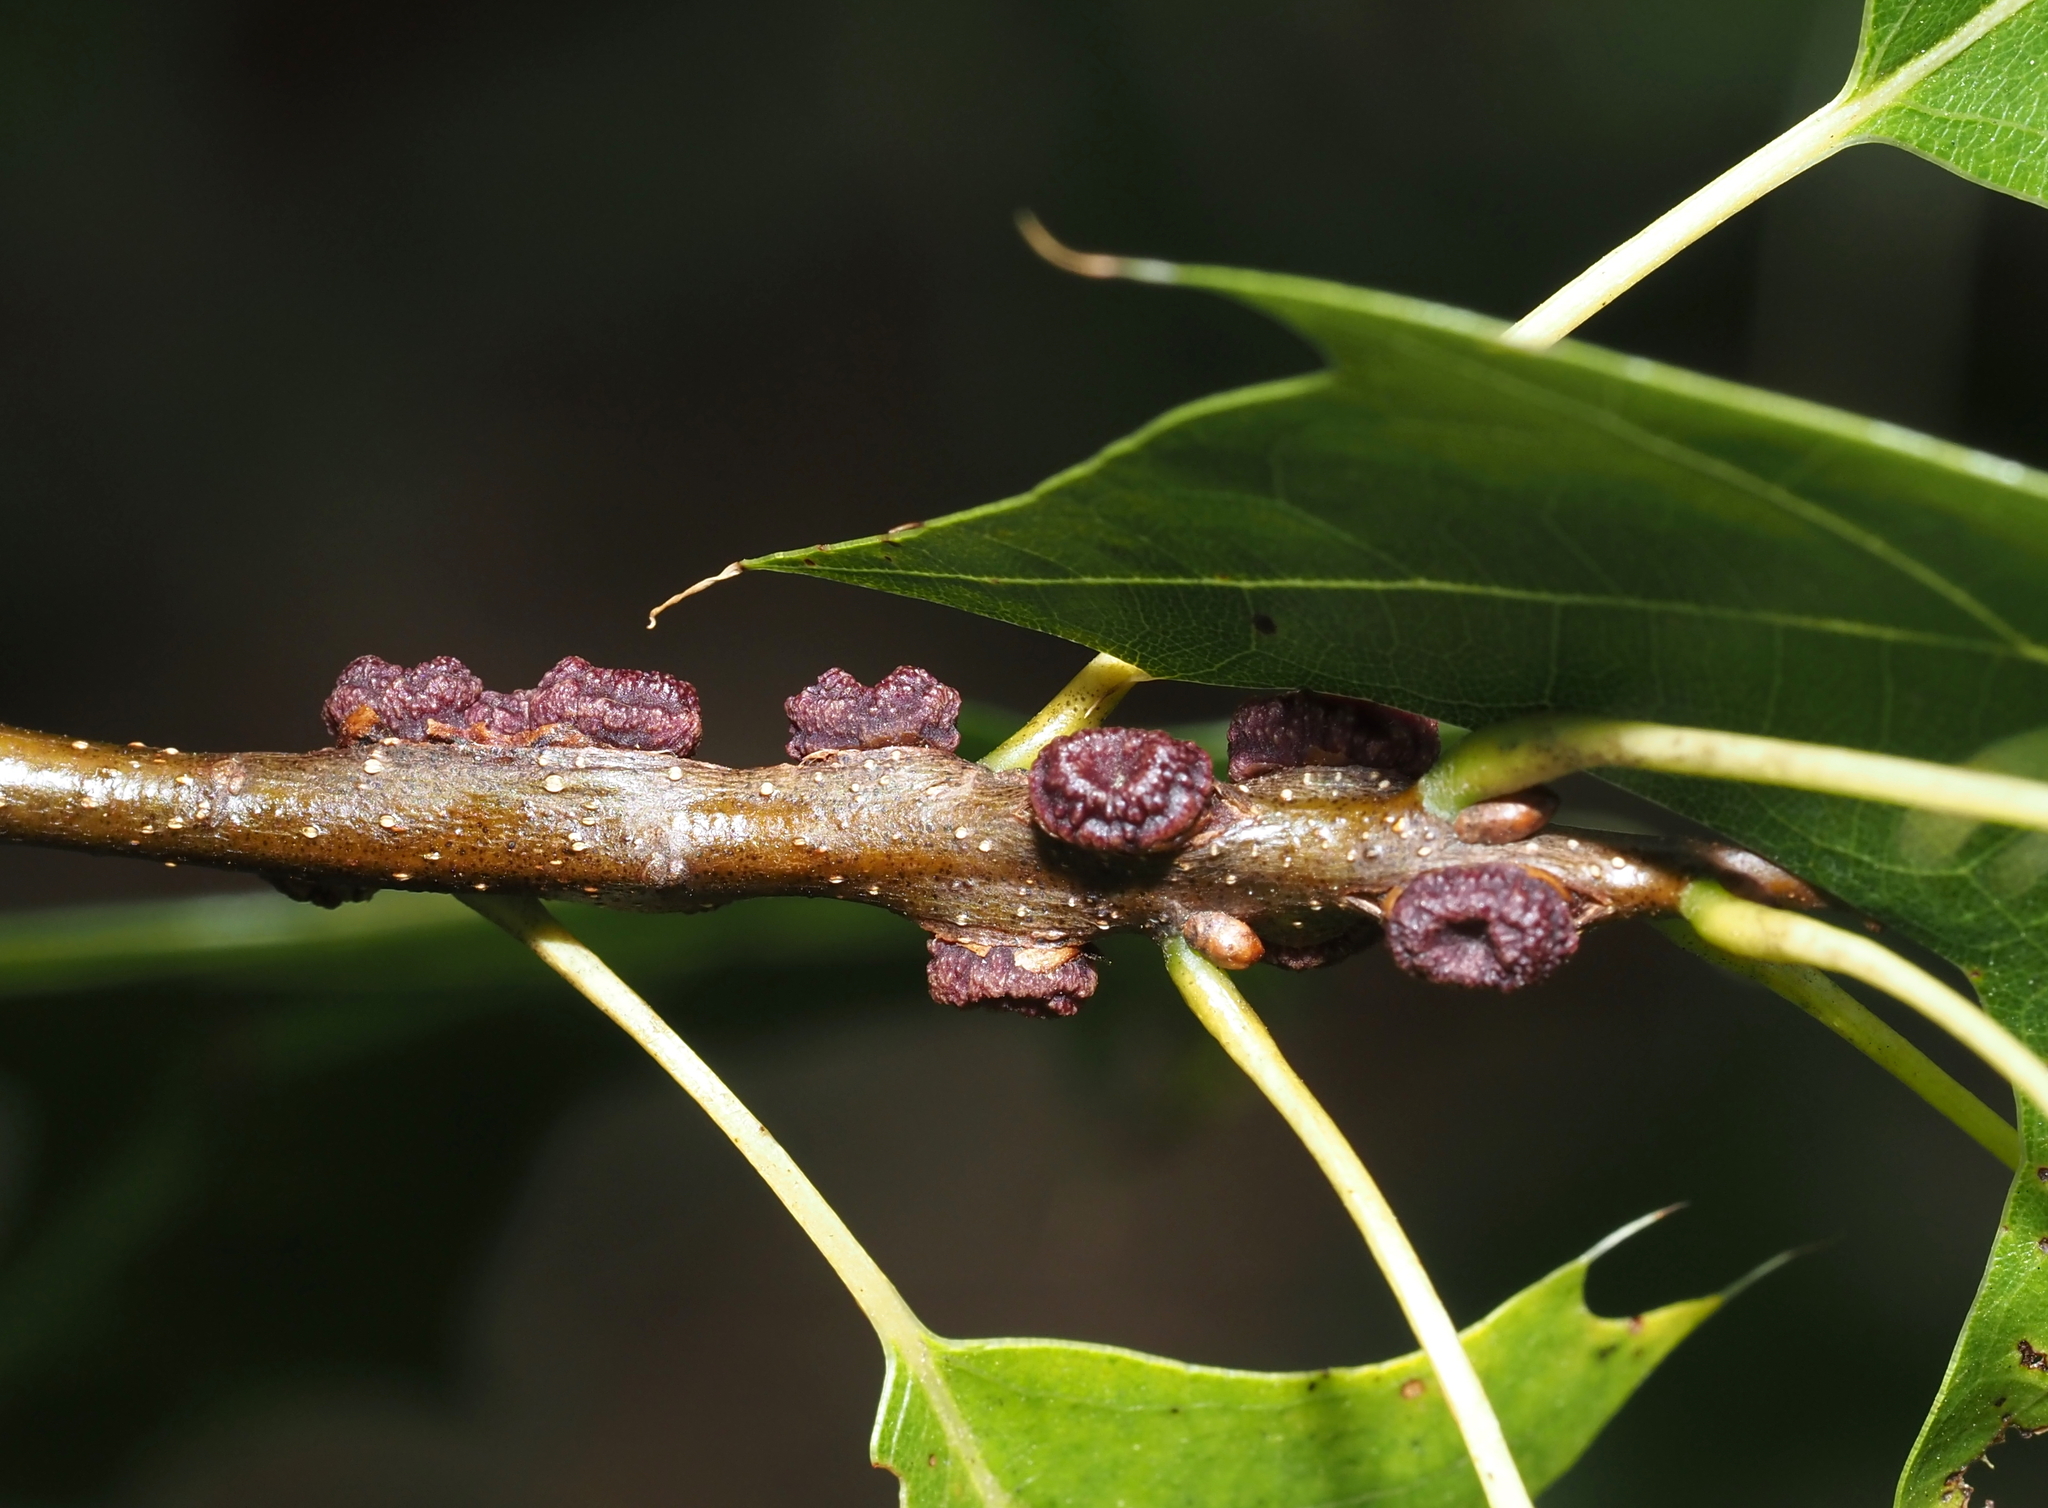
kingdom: Animalia
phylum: Arthropoda
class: Insecta
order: Hymenoptera
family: Cynipidae
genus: Kokkocynips
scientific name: Kokkocynips difficilis
